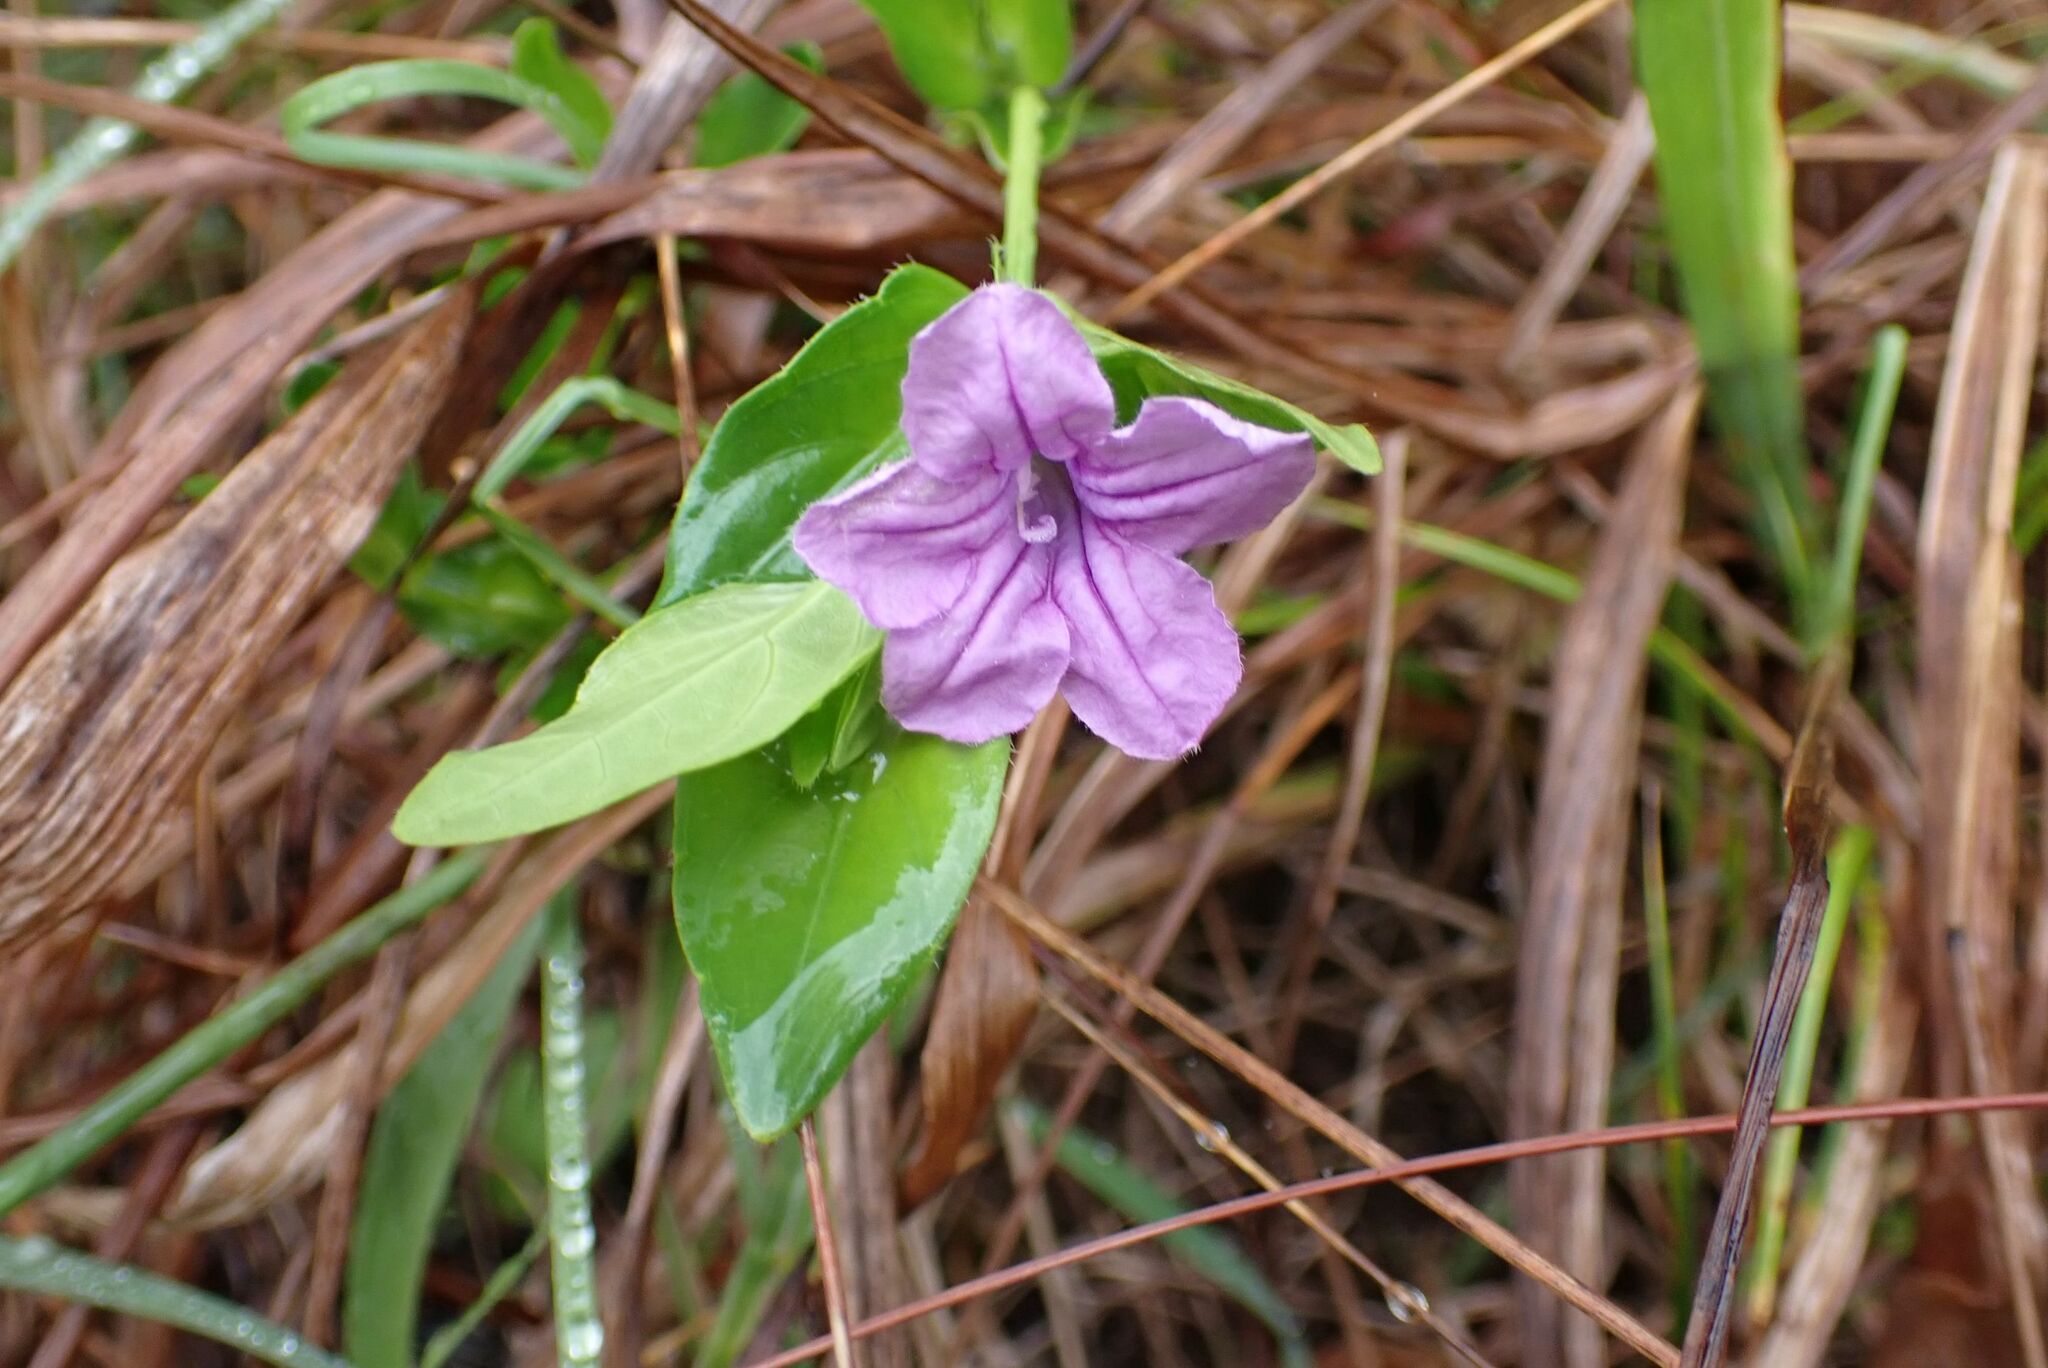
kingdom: Plantae
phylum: Tracheophyta
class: Magnoliopsida
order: Lamiales
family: Acanthaceae
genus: Ruellia
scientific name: Ruellia cordata
